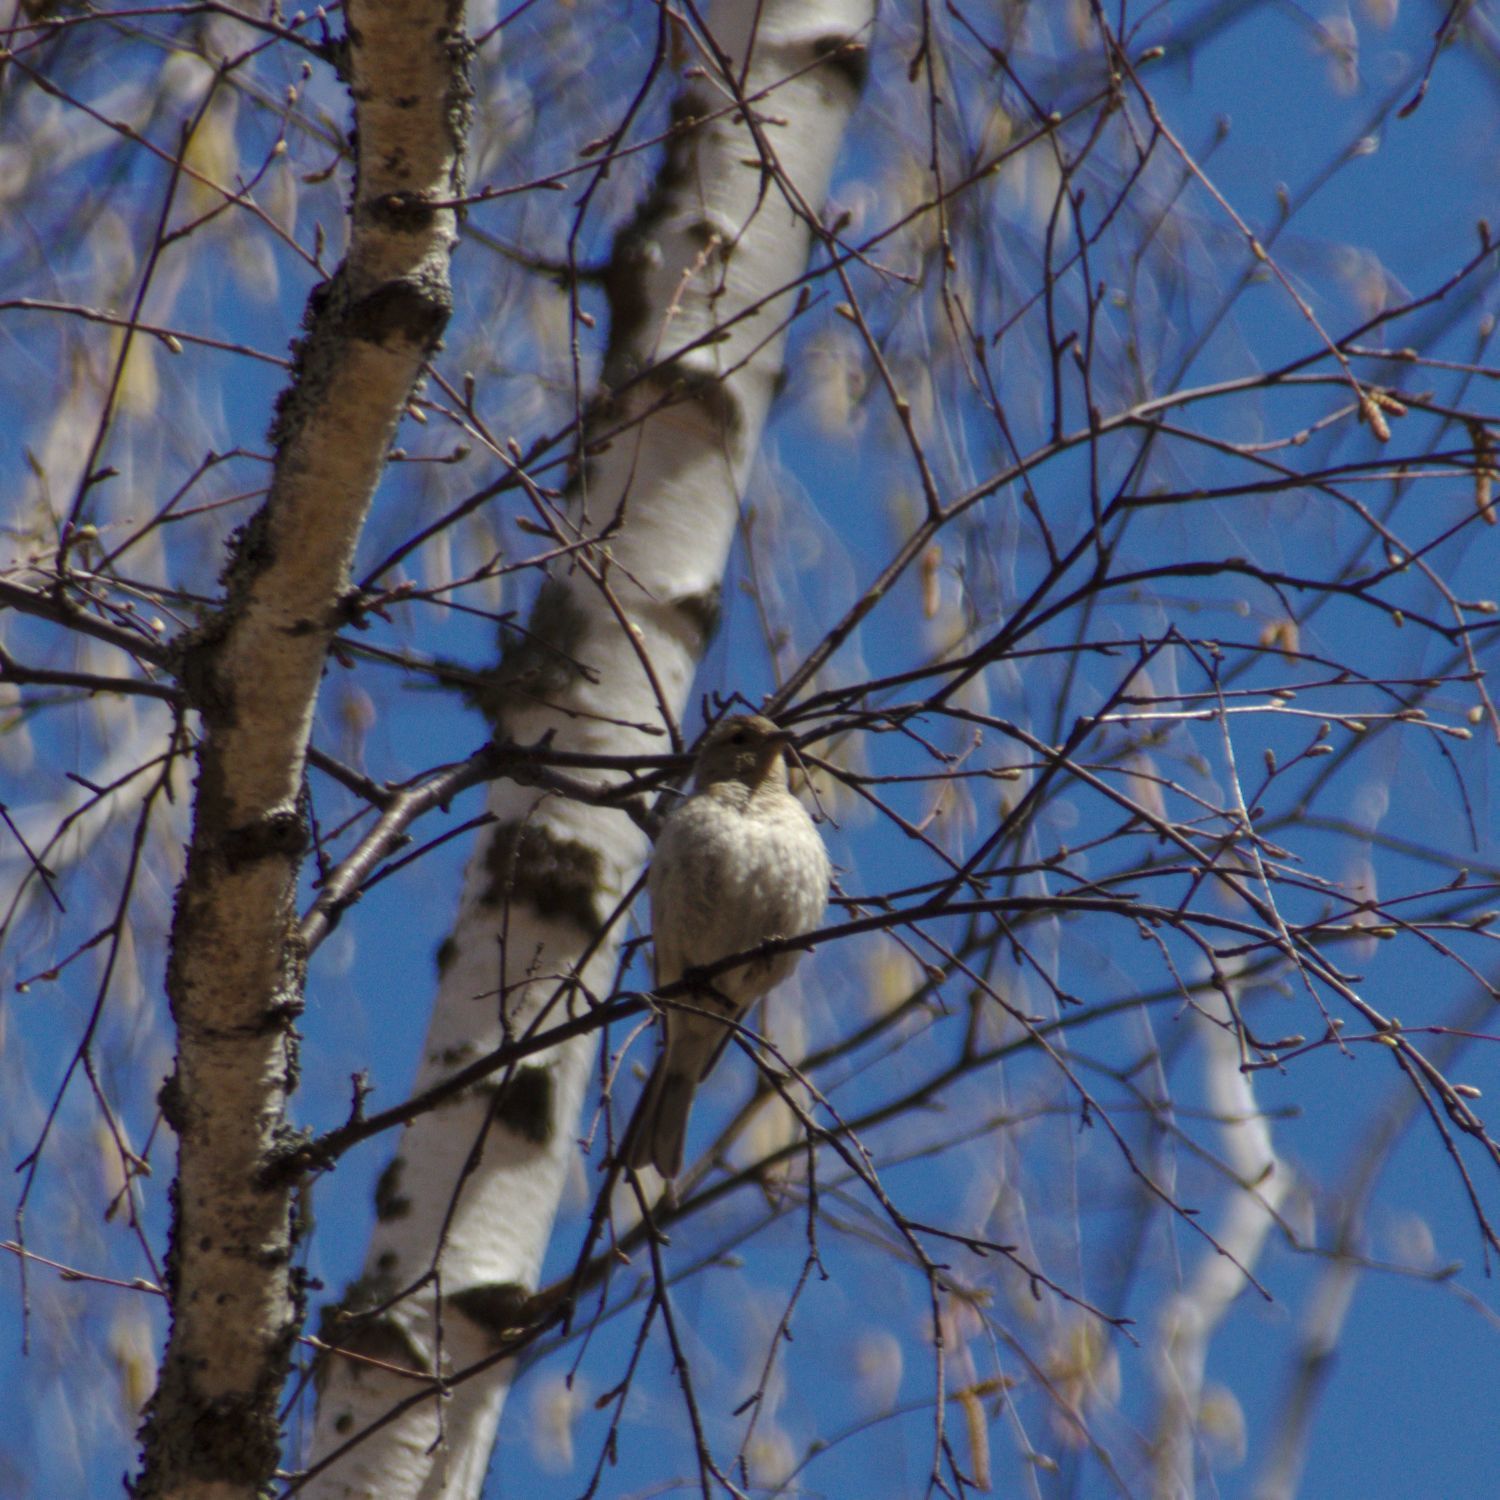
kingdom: Animalia
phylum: Chordata
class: Aves
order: Passeriformes
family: Fringillidae
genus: Fringilla
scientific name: Fringilla coelebs
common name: Common chaffinch
